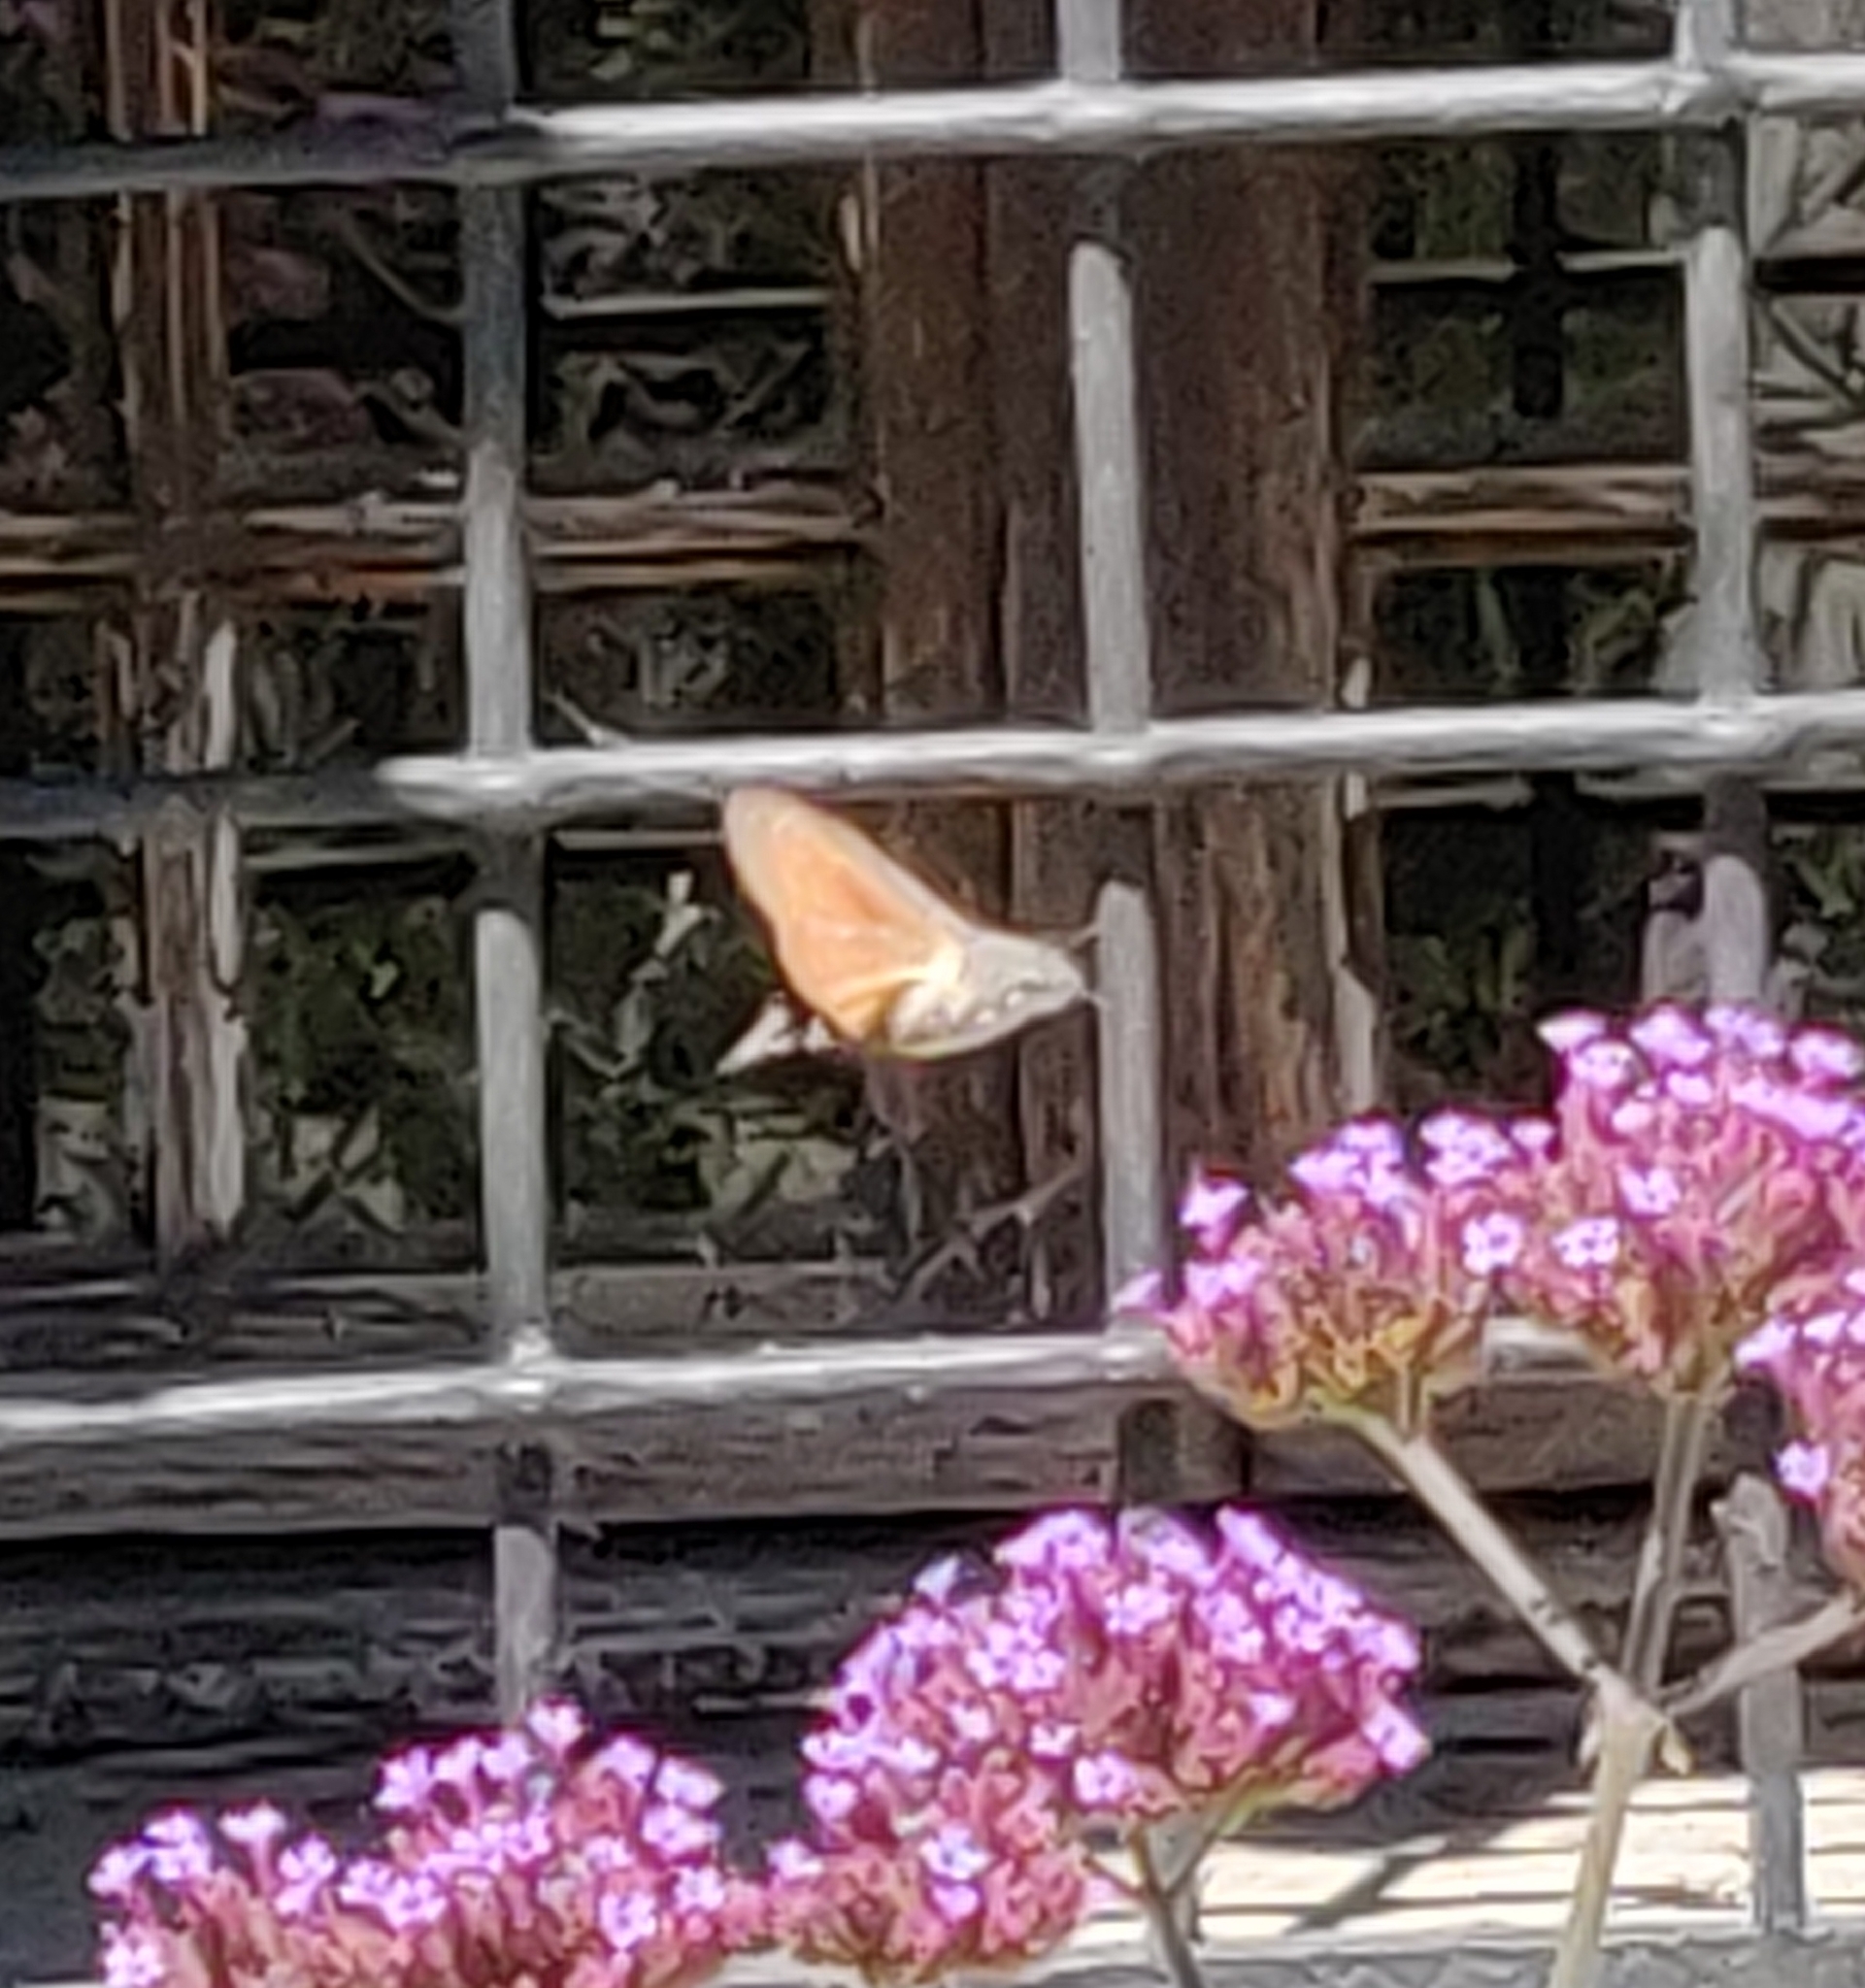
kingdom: Animalia
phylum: Arthropoda
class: Insecta
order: Lepidoptera
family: Sphingidae
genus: Macroglossum
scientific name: Macroglossum stellatarum
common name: Humming-bird hawk-moth
